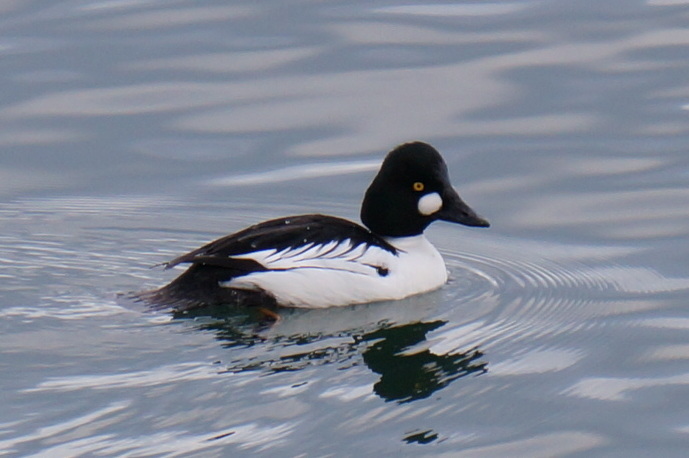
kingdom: Animalia
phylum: Chordata
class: Aves
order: Anseriformes
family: Anatidae
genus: Bucephala
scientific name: Bucephala clangula
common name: Common goldeneye
